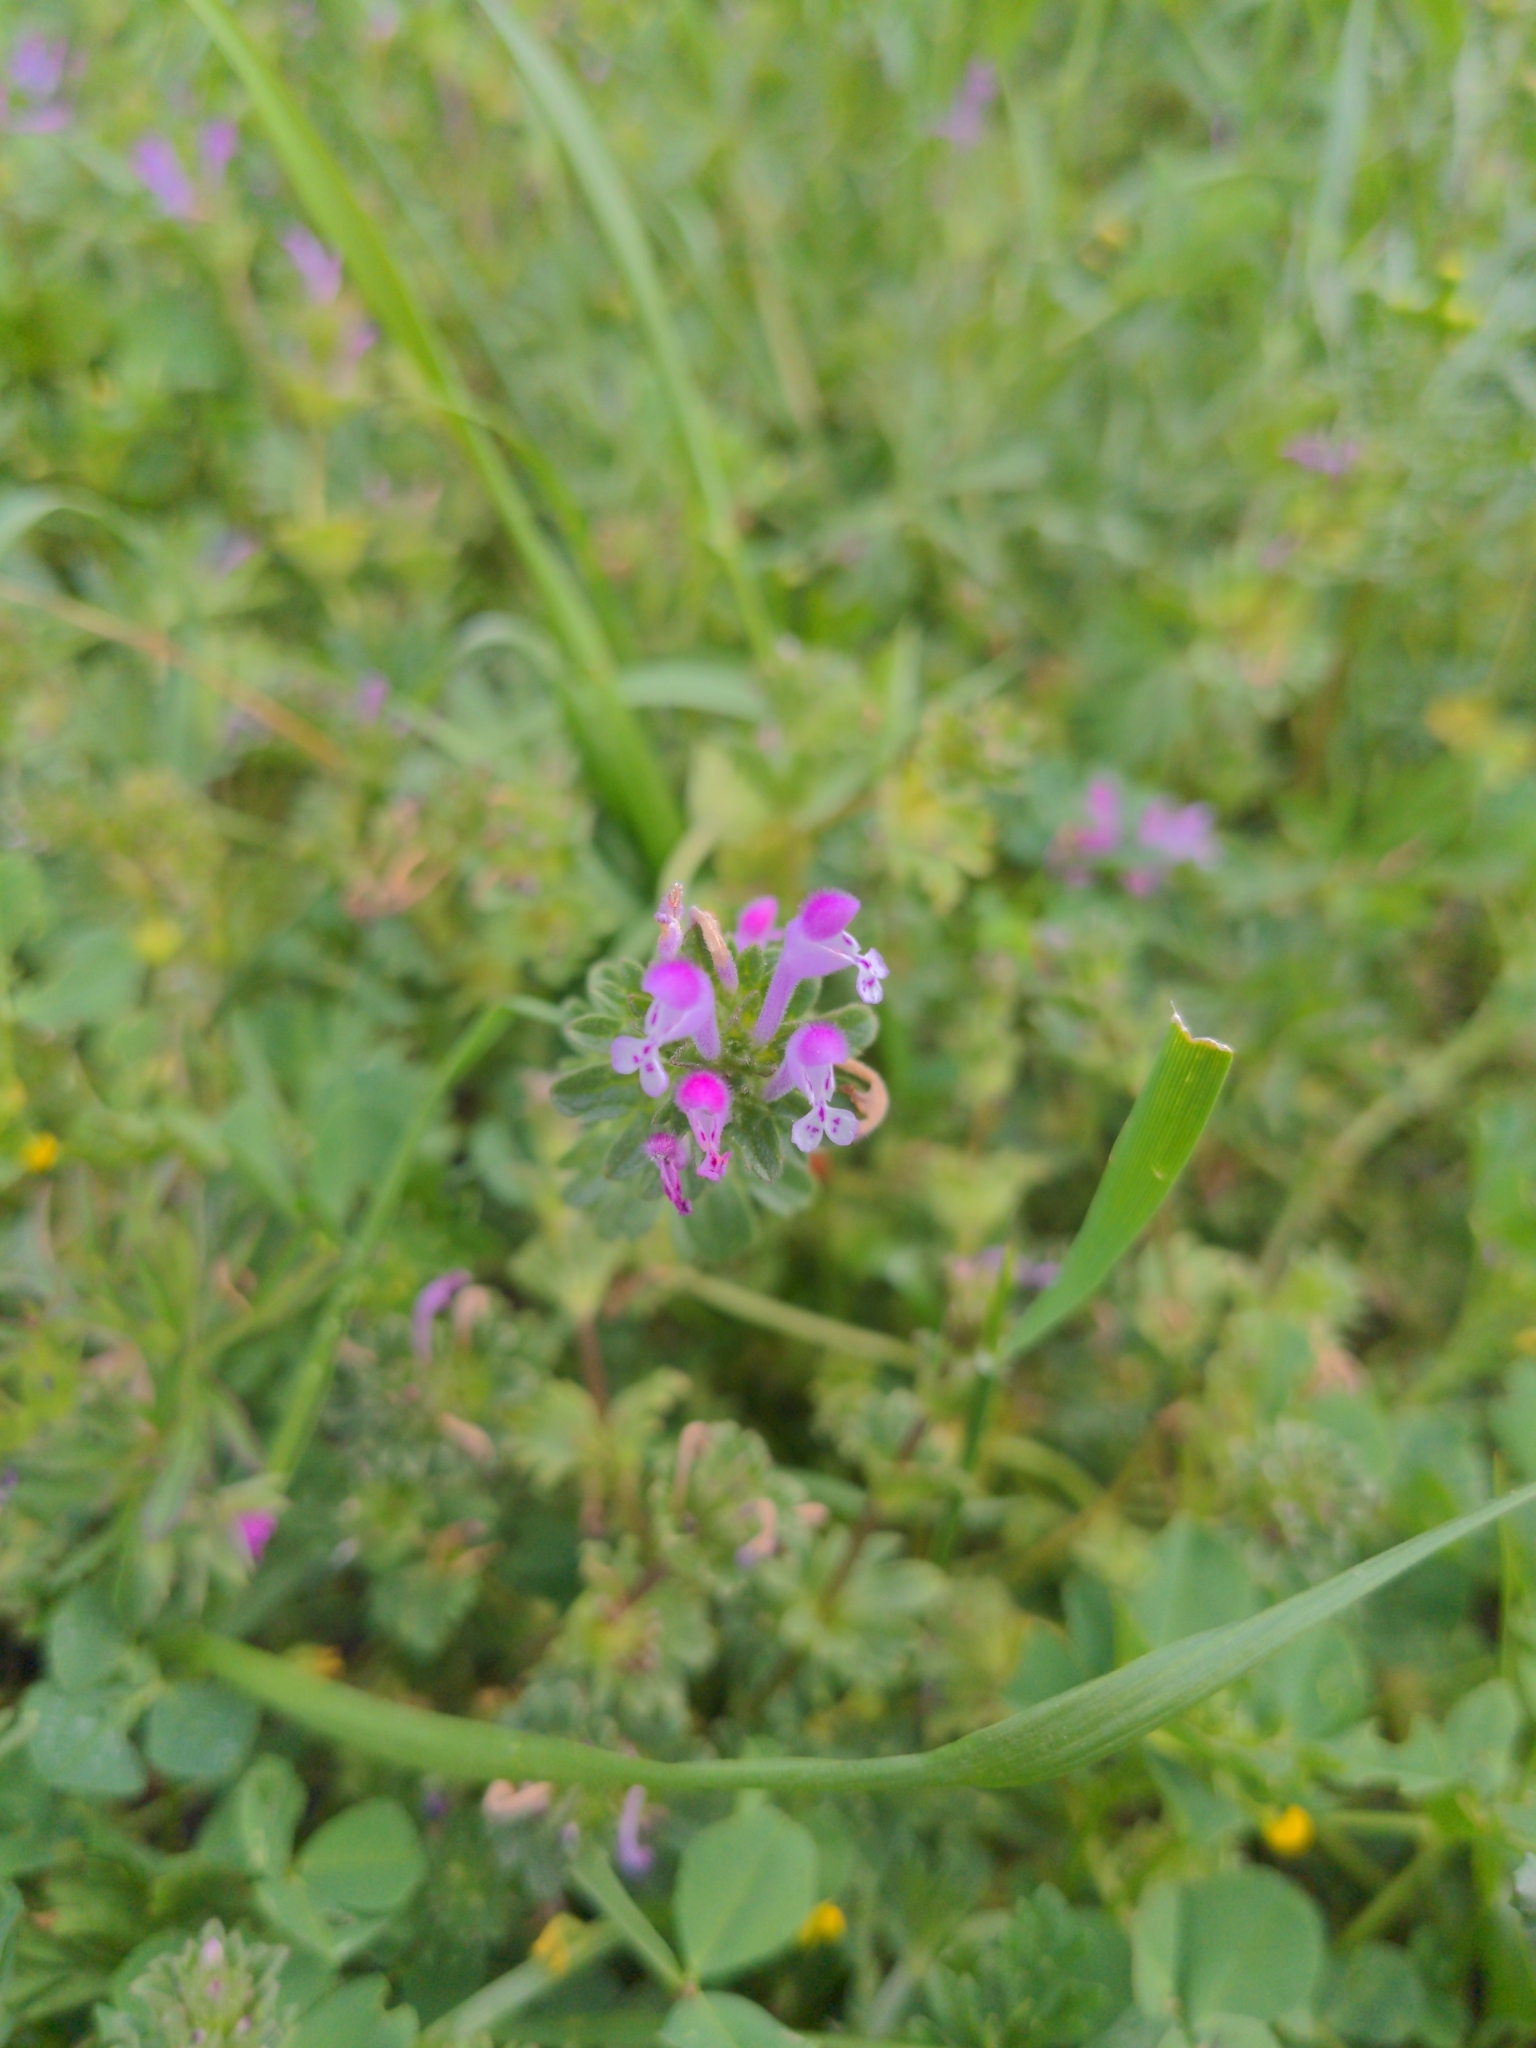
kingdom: Plantae
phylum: Tracheophyta
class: Magnoliopsida
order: Lamiales
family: Lamiaceae
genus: Lamium
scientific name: Lamium amplexicaule
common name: Henbit dead-nettle
